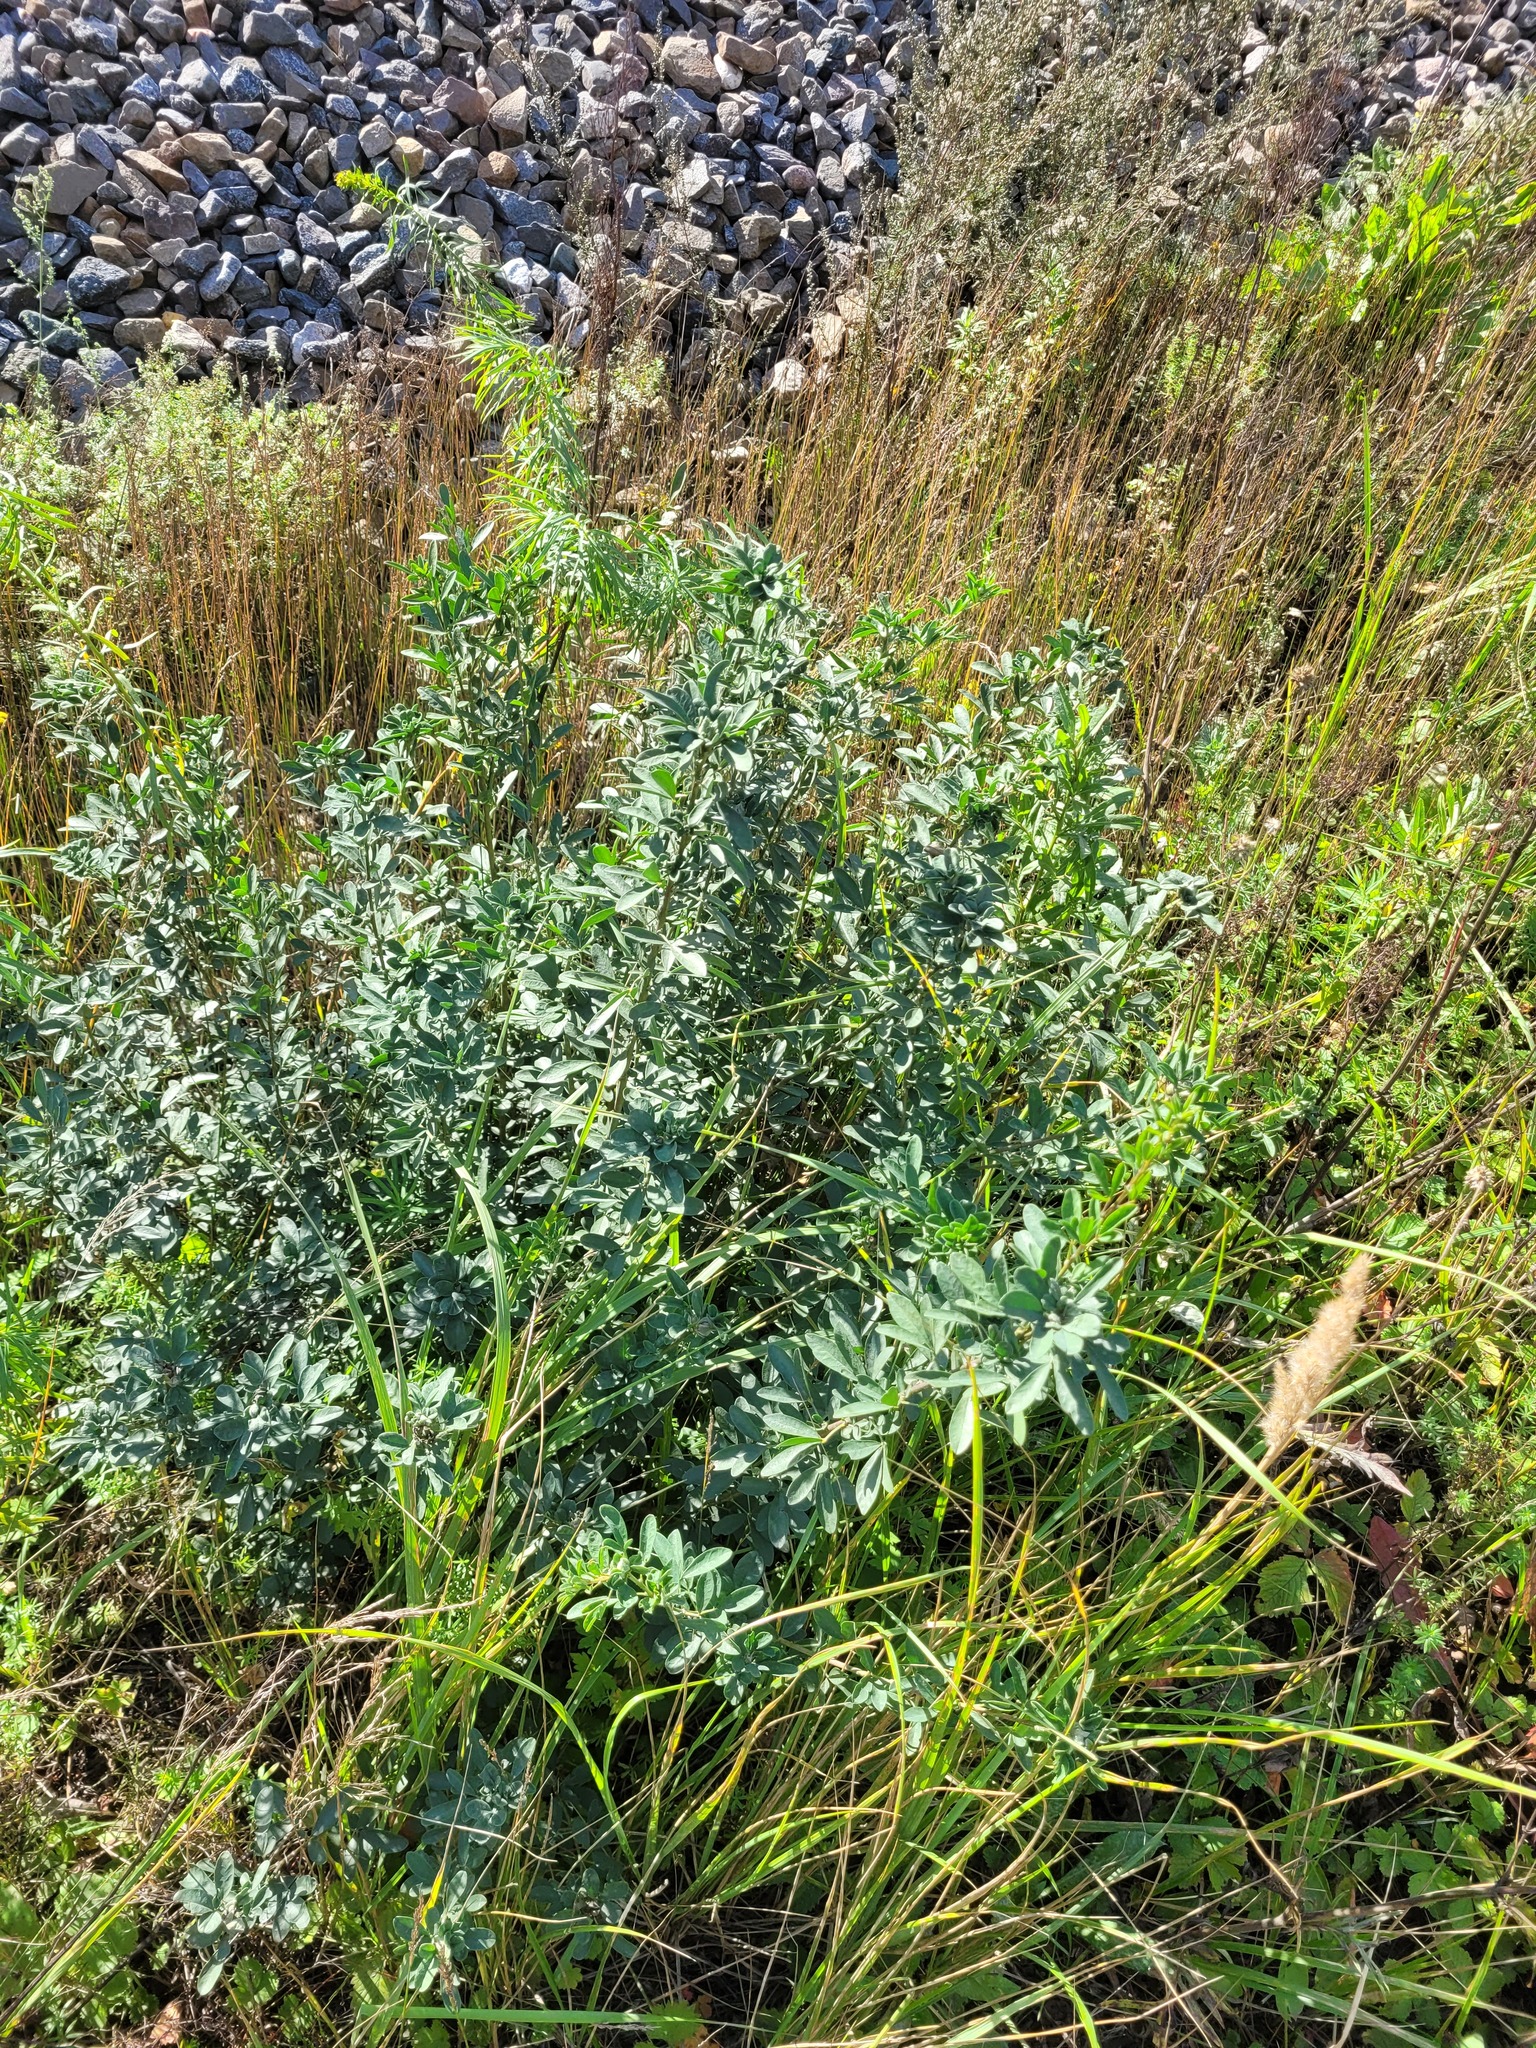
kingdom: Plantae
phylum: Tracheophyta
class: Magnoliopsida
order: Fabales
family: Fabaceae
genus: Chamaecytisus
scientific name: Chamaecytisus ruthenicus
